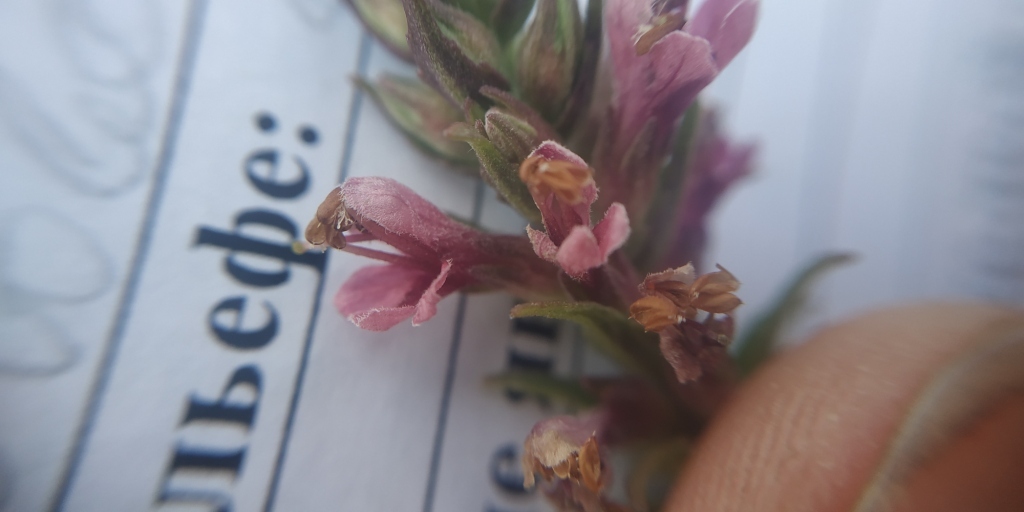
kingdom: Plantae
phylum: Tracheophyta
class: Magnoliopsida
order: Lamiales
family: Orobanchaceae
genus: Odontites
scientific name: Odontites vulgaris
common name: Broomrape
